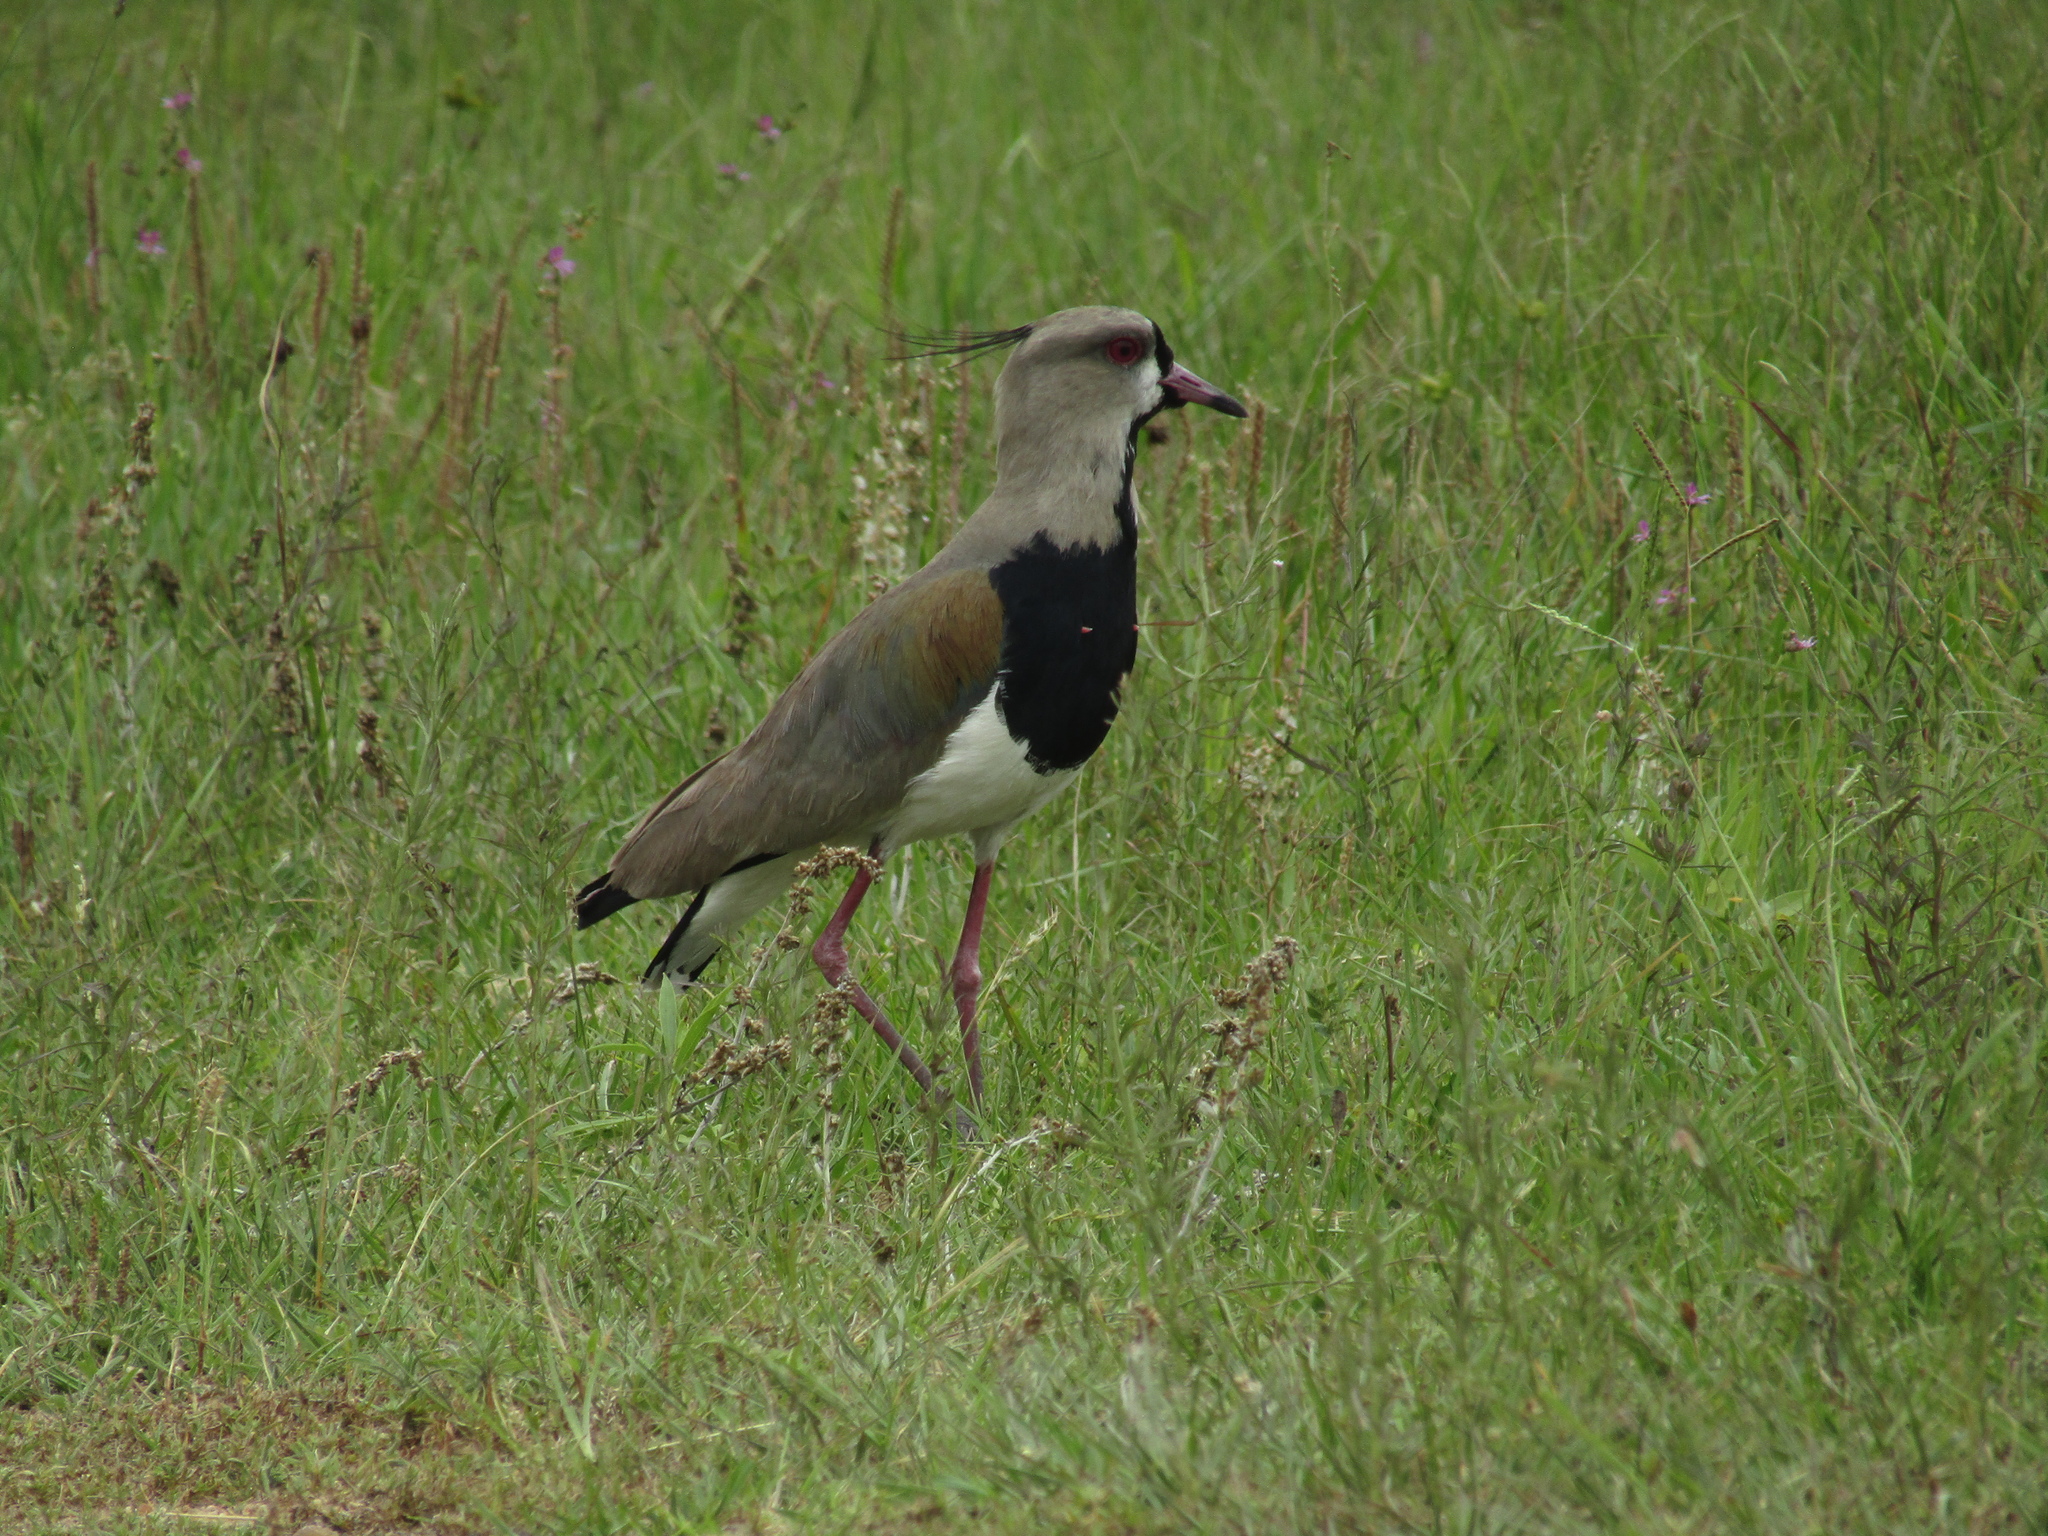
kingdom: Animalia
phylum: Chordata
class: Aves
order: Charadriiformes
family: Charadriidae
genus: Vanellus
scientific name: Vanellus chilensis
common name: Southern lapwing
